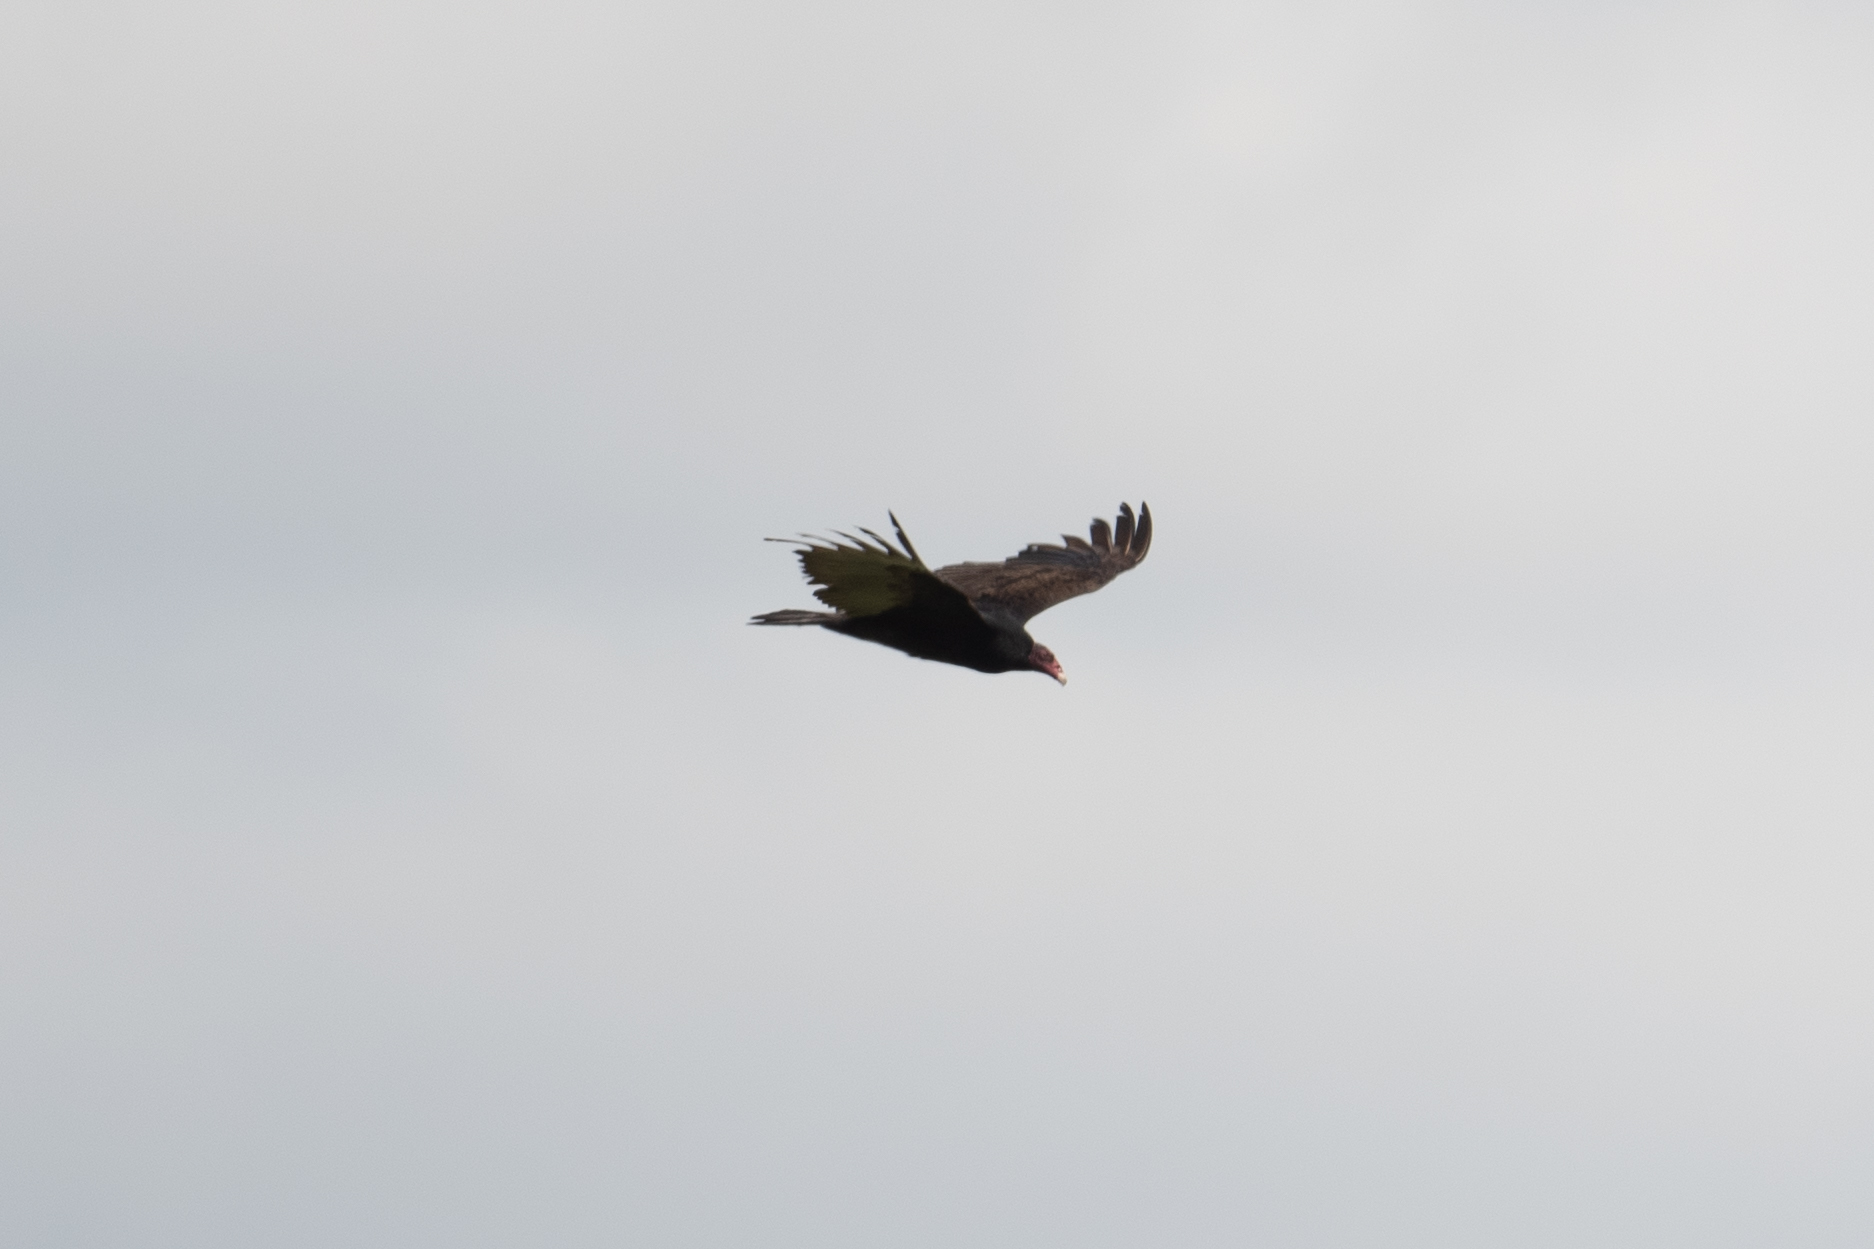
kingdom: Animalia
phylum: Chordata
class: Aves
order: Accipitriformes
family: Cathartidae
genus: Cathartes
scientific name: Cathartes aura
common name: Turkey vulture
